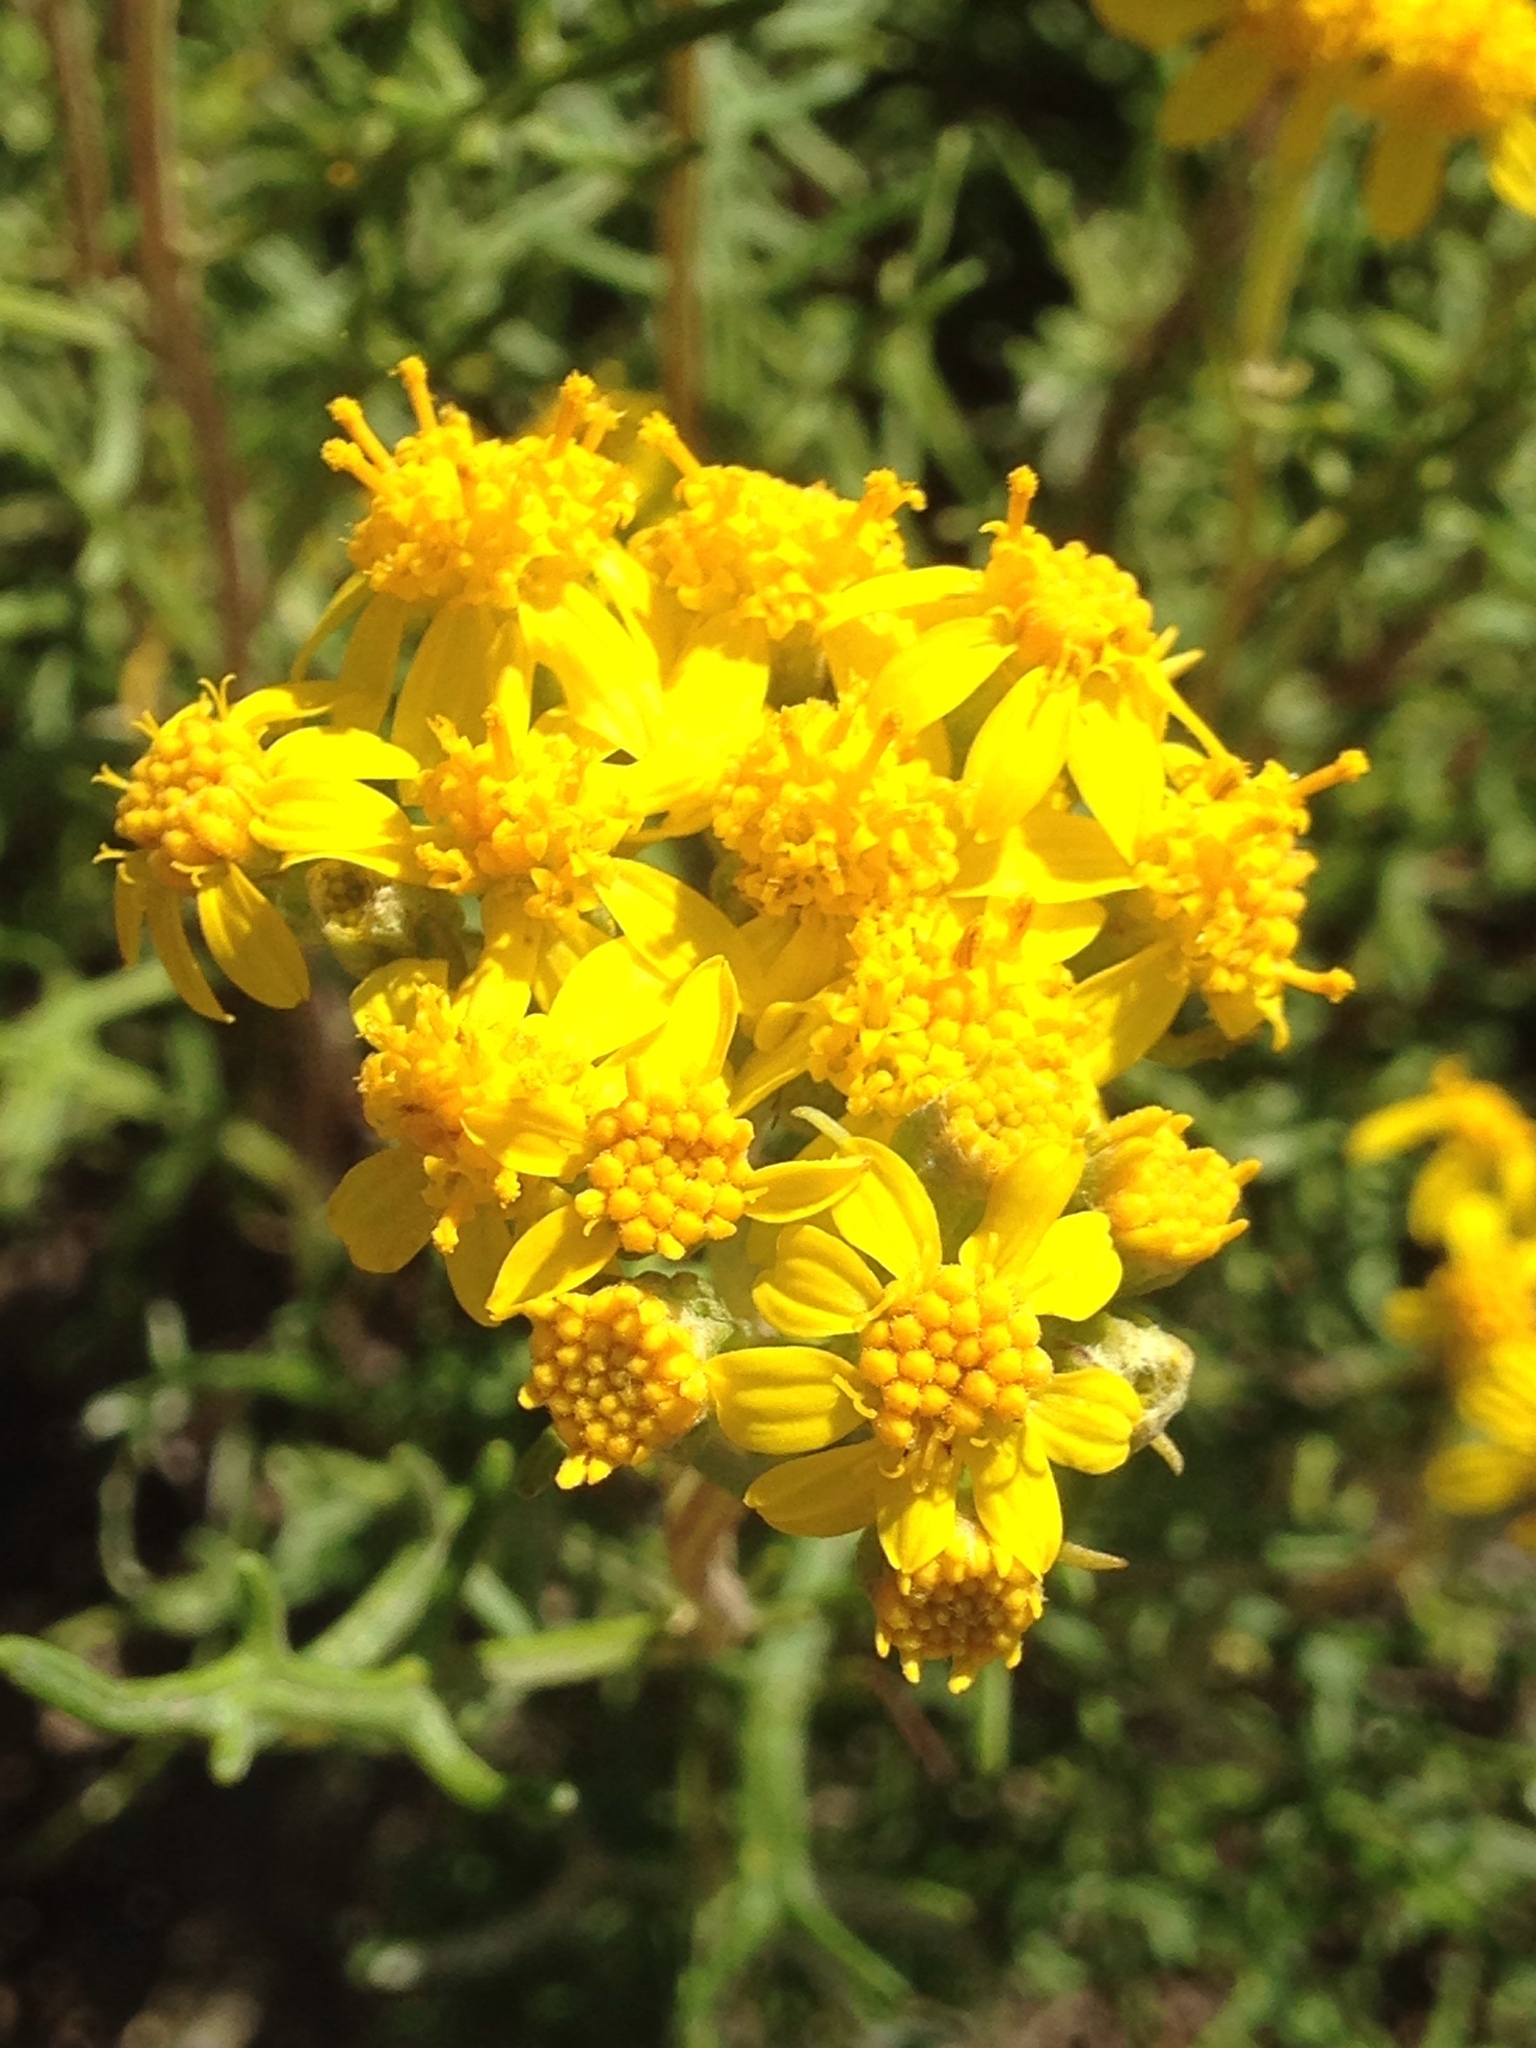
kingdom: Plantae
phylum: Tracheophyta
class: Magnoliopsida
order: Asterales
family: Asteraceae
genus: Eriophyllum
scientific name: Eriophyllum staechadifolium
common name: Lizardtail
